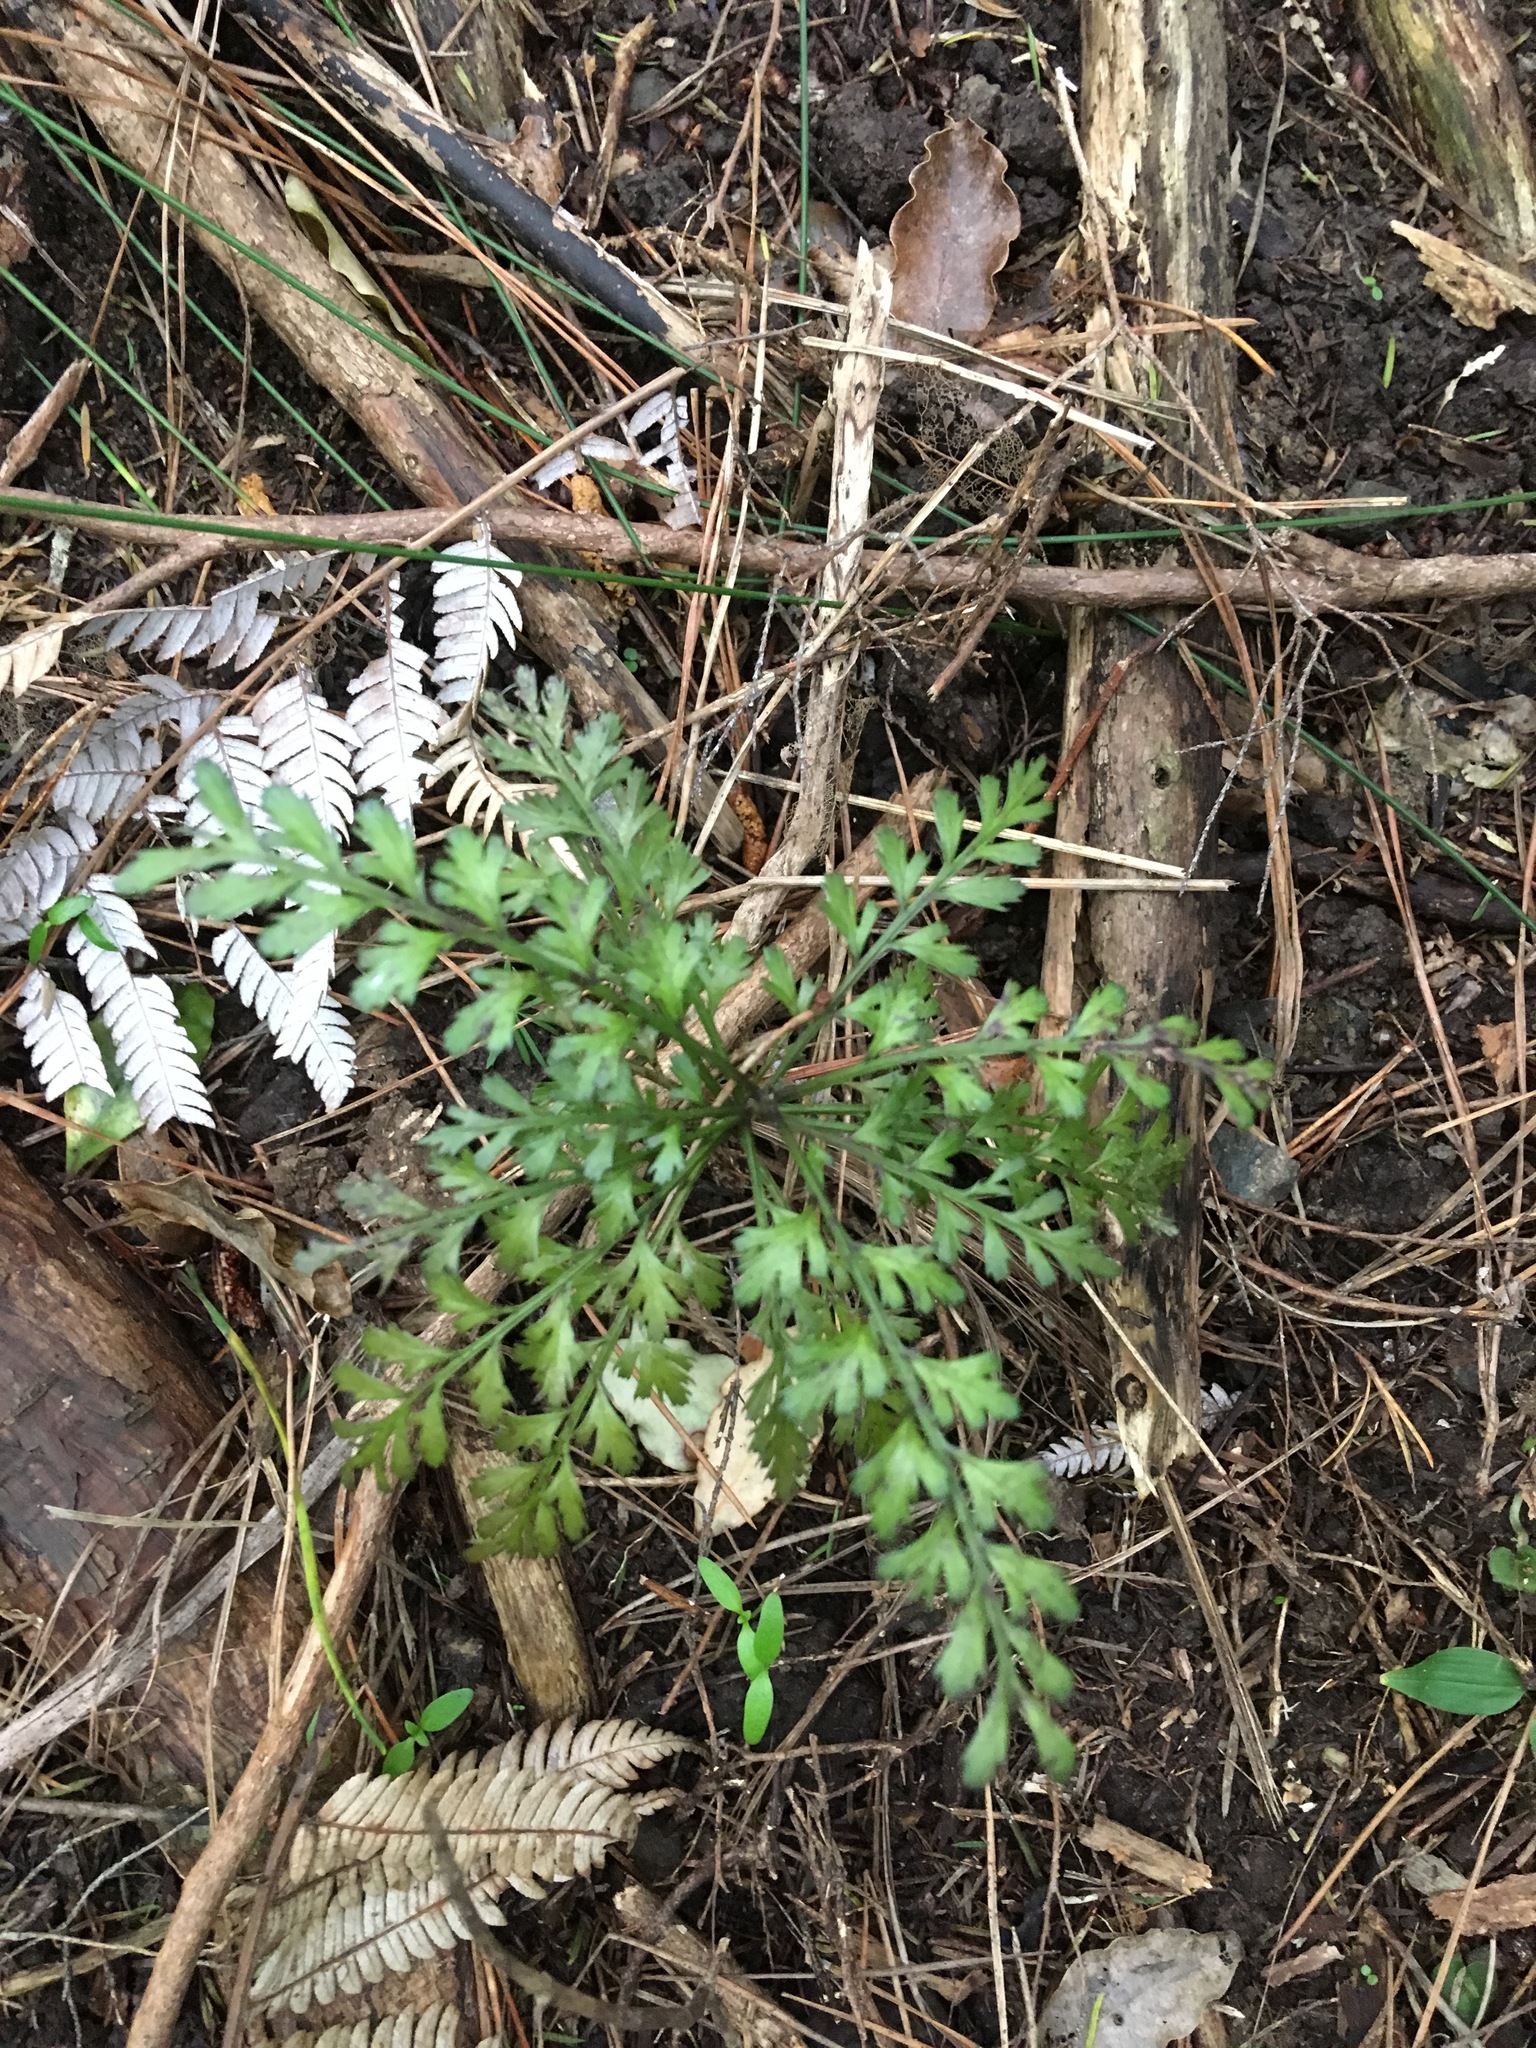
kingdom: Plantae
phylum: Tracheophyta
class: Pinopsida
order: Pinales
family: Phyllocladaceae
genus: Phyllocladus
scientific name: Phyllocladus trichomanoides
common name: Celery pine
